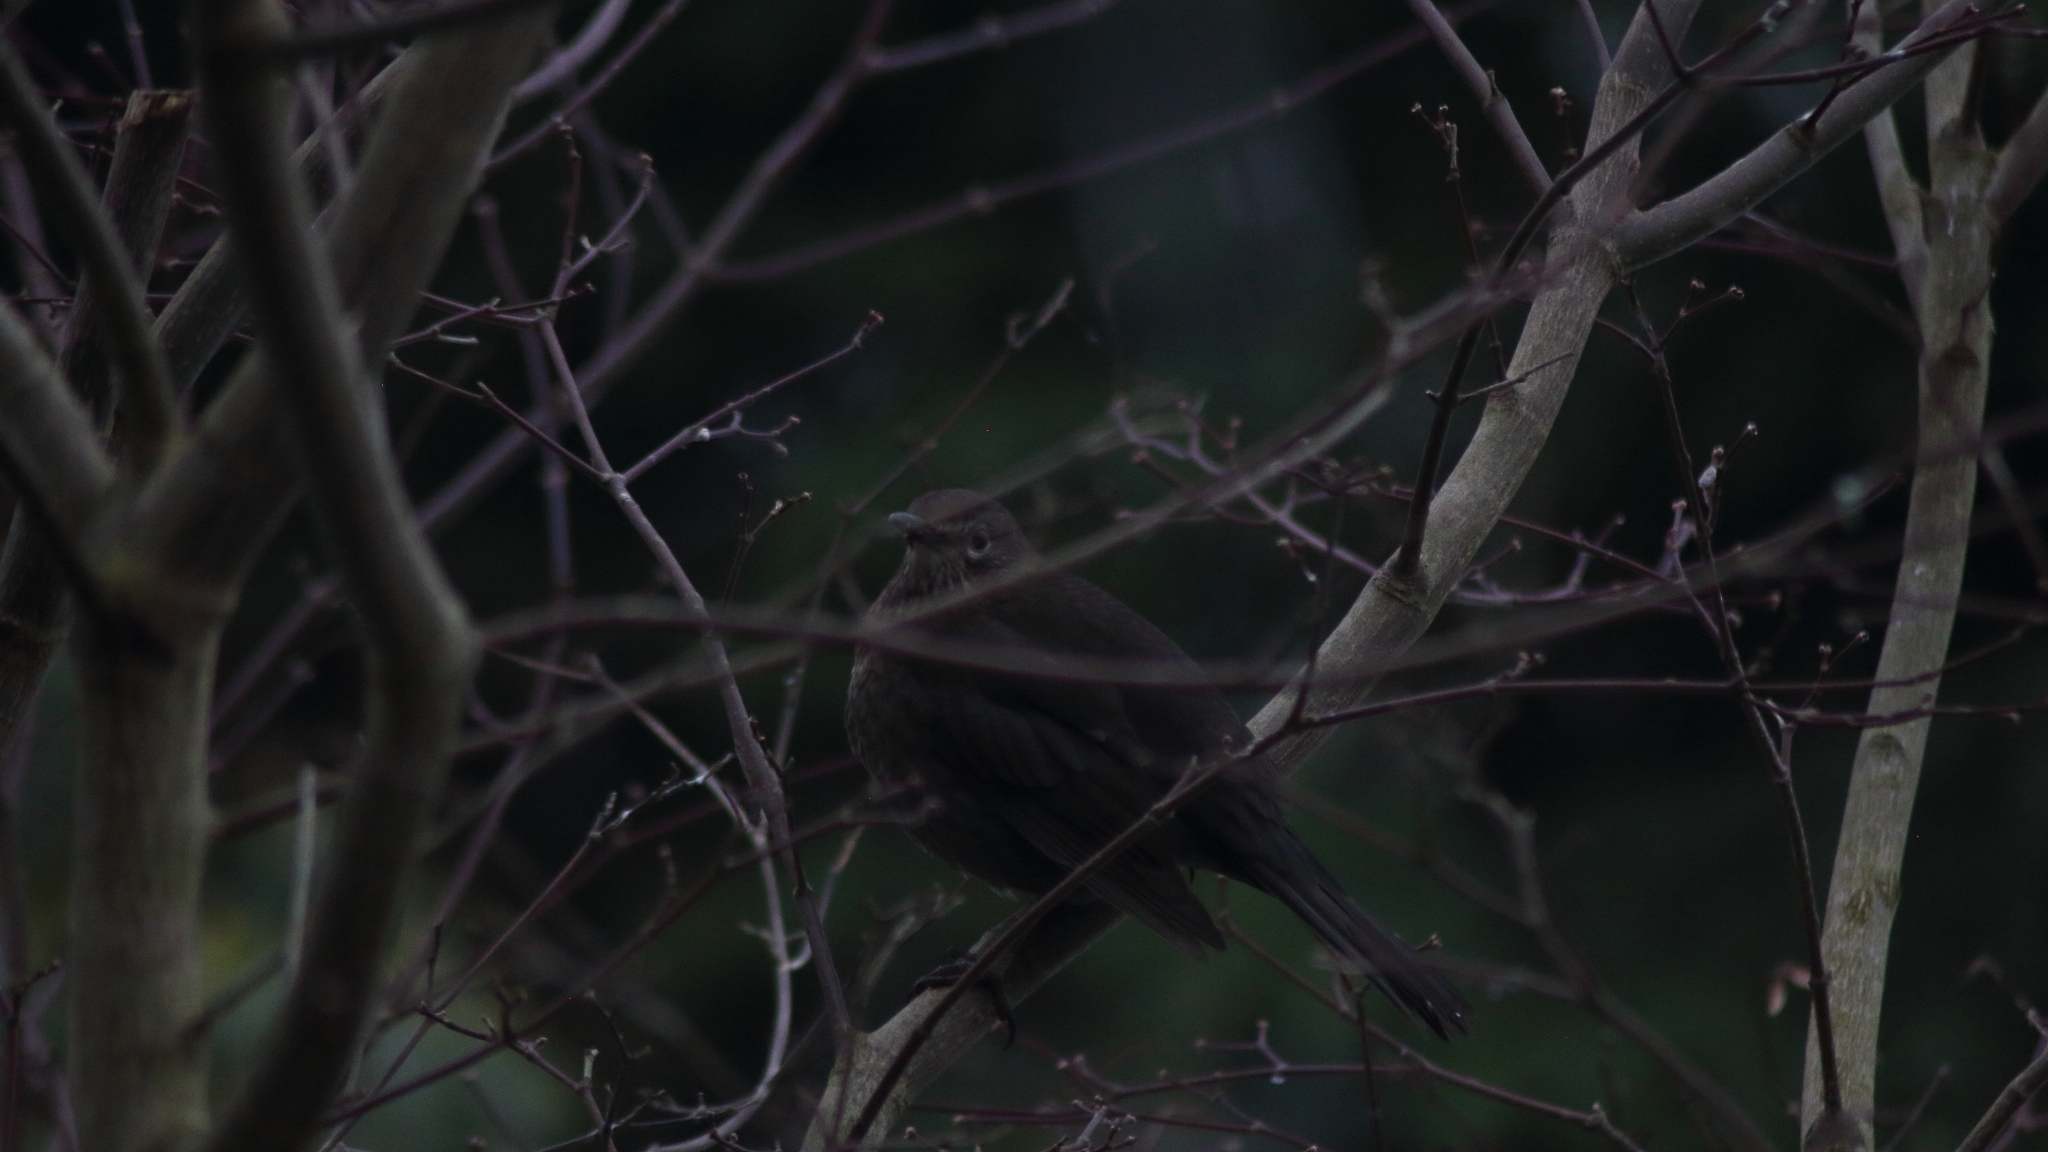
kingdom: Animalia
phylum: Chordata
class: Aves
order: Passeriformes
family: Turdidae
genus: Turdus
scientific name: Turdus merula
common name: Common blackbird
